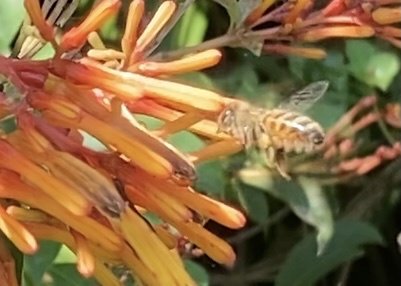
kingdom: Animalia
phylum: Arthropoda
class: Insecta
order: Hymenoptera
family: Apidae
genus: Apis
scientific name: Apis mellifera
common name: Honey bee
